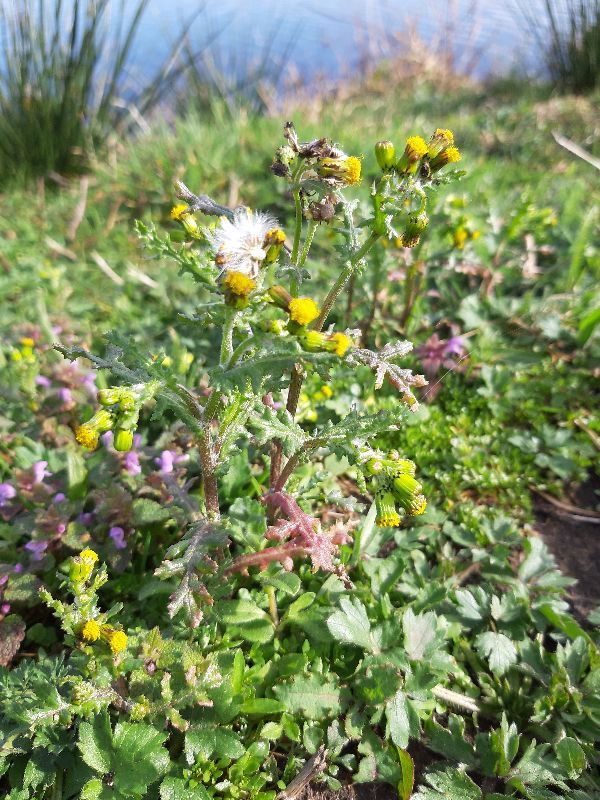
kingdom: Plantae
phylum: Tracheophyta
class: Magnoliopsida
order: Asterales
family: Asteraceae
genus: Senecio
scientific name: Senecio vulgaris
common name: Old-man-in-the-spring
